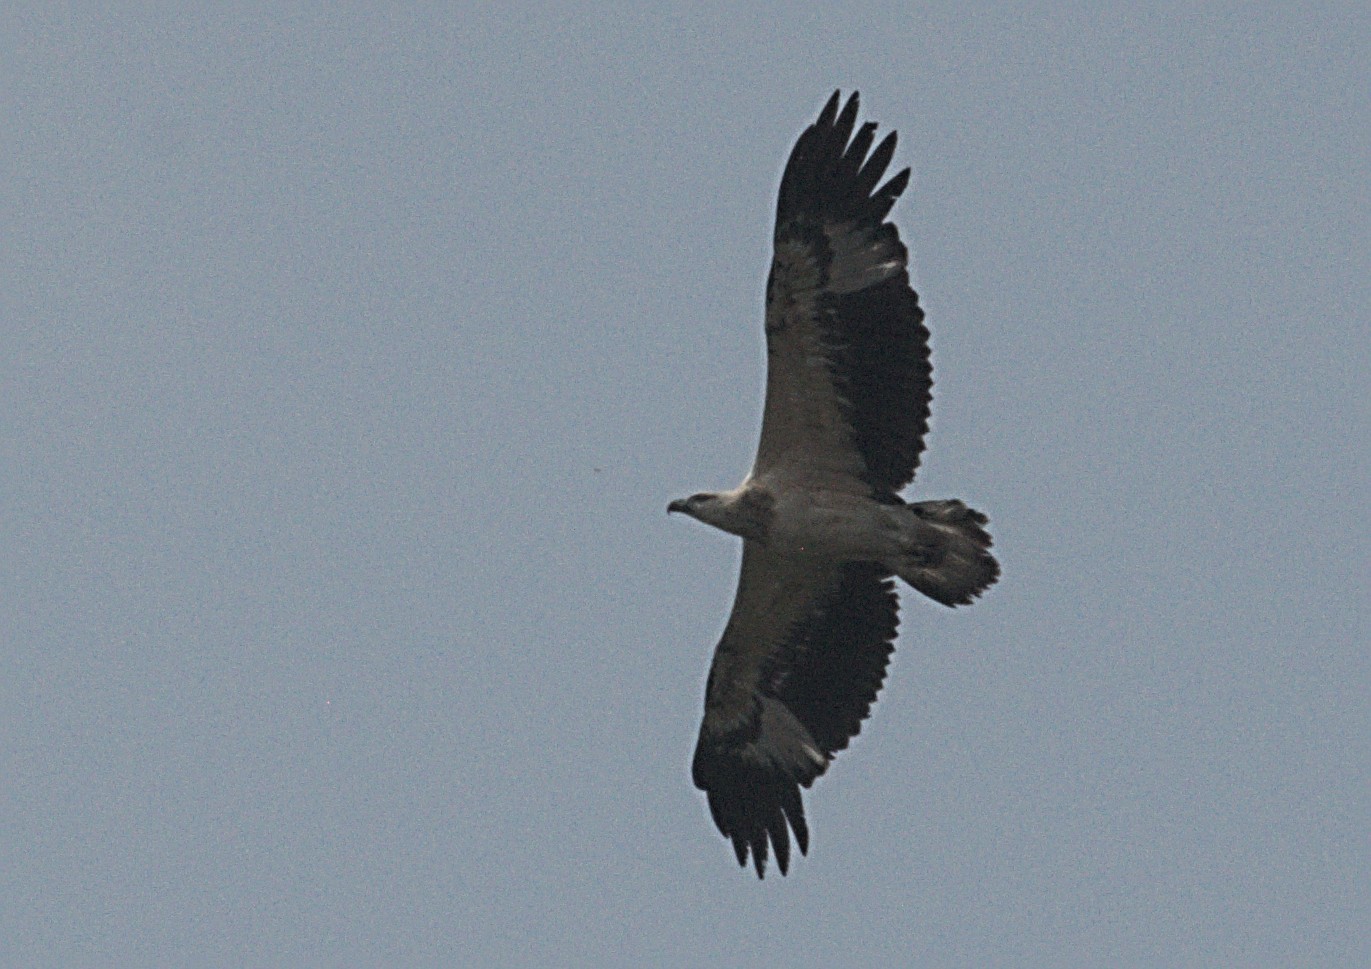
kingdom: Animalia
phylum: Chordata
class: Aves
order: Accipitriformes
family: Accipitridae
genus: Haliaeetus
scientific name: Haliaeetus leucogaster
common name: White-bellied sea eagle
